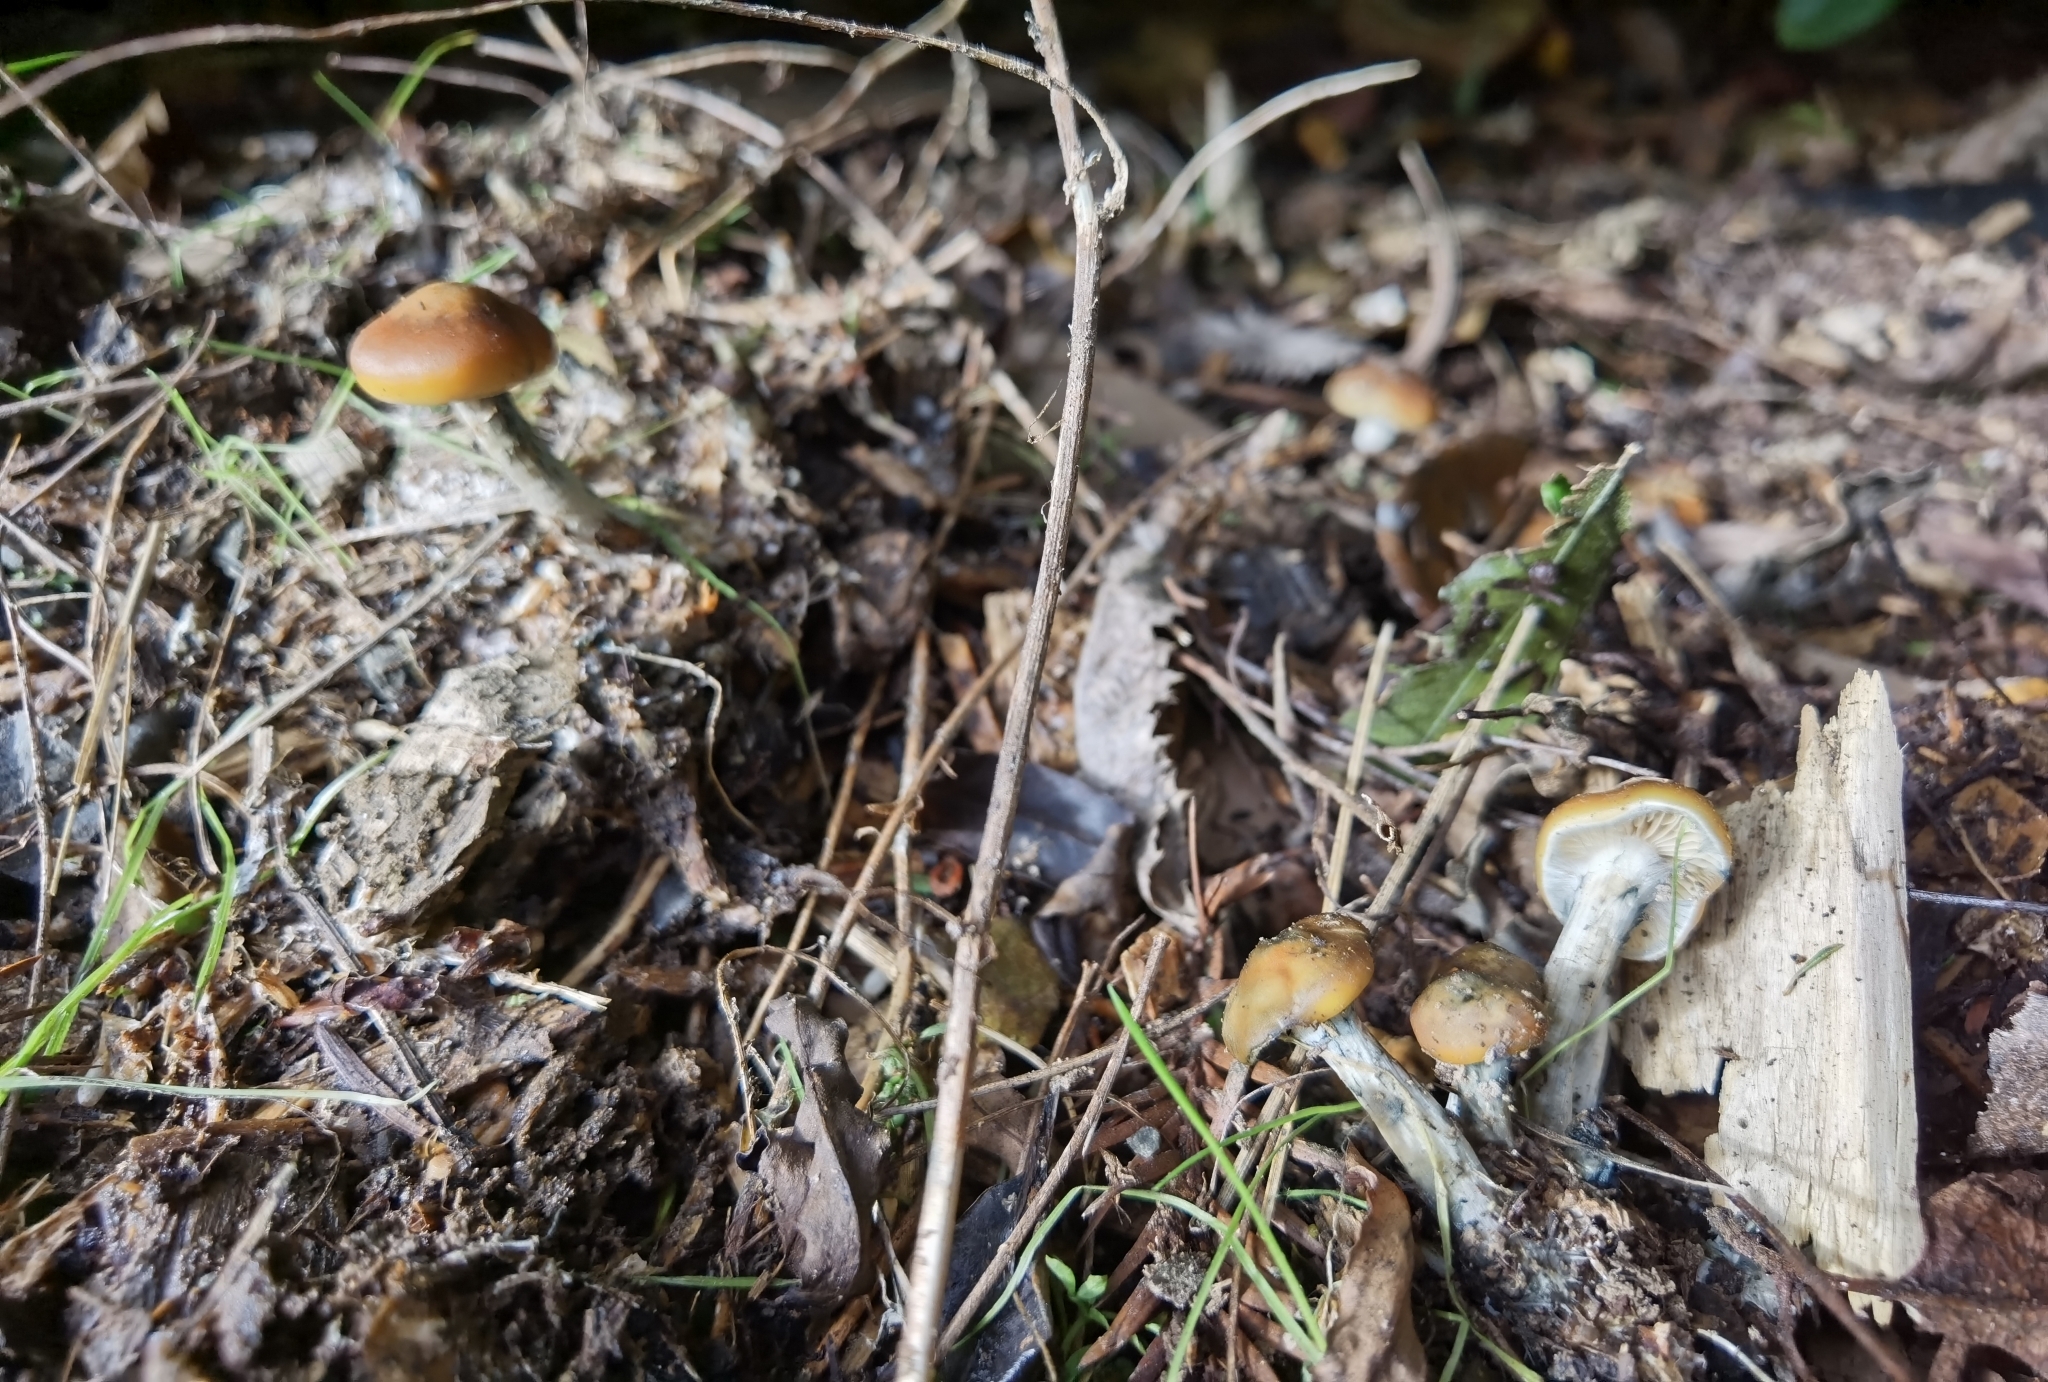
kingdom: Fungi
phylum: Basidiomycota
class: Agaricomycetes
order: Agaricales
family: Hymenogastraceae
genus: Psilocybe
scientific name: Psilocybe subaeruginosa
